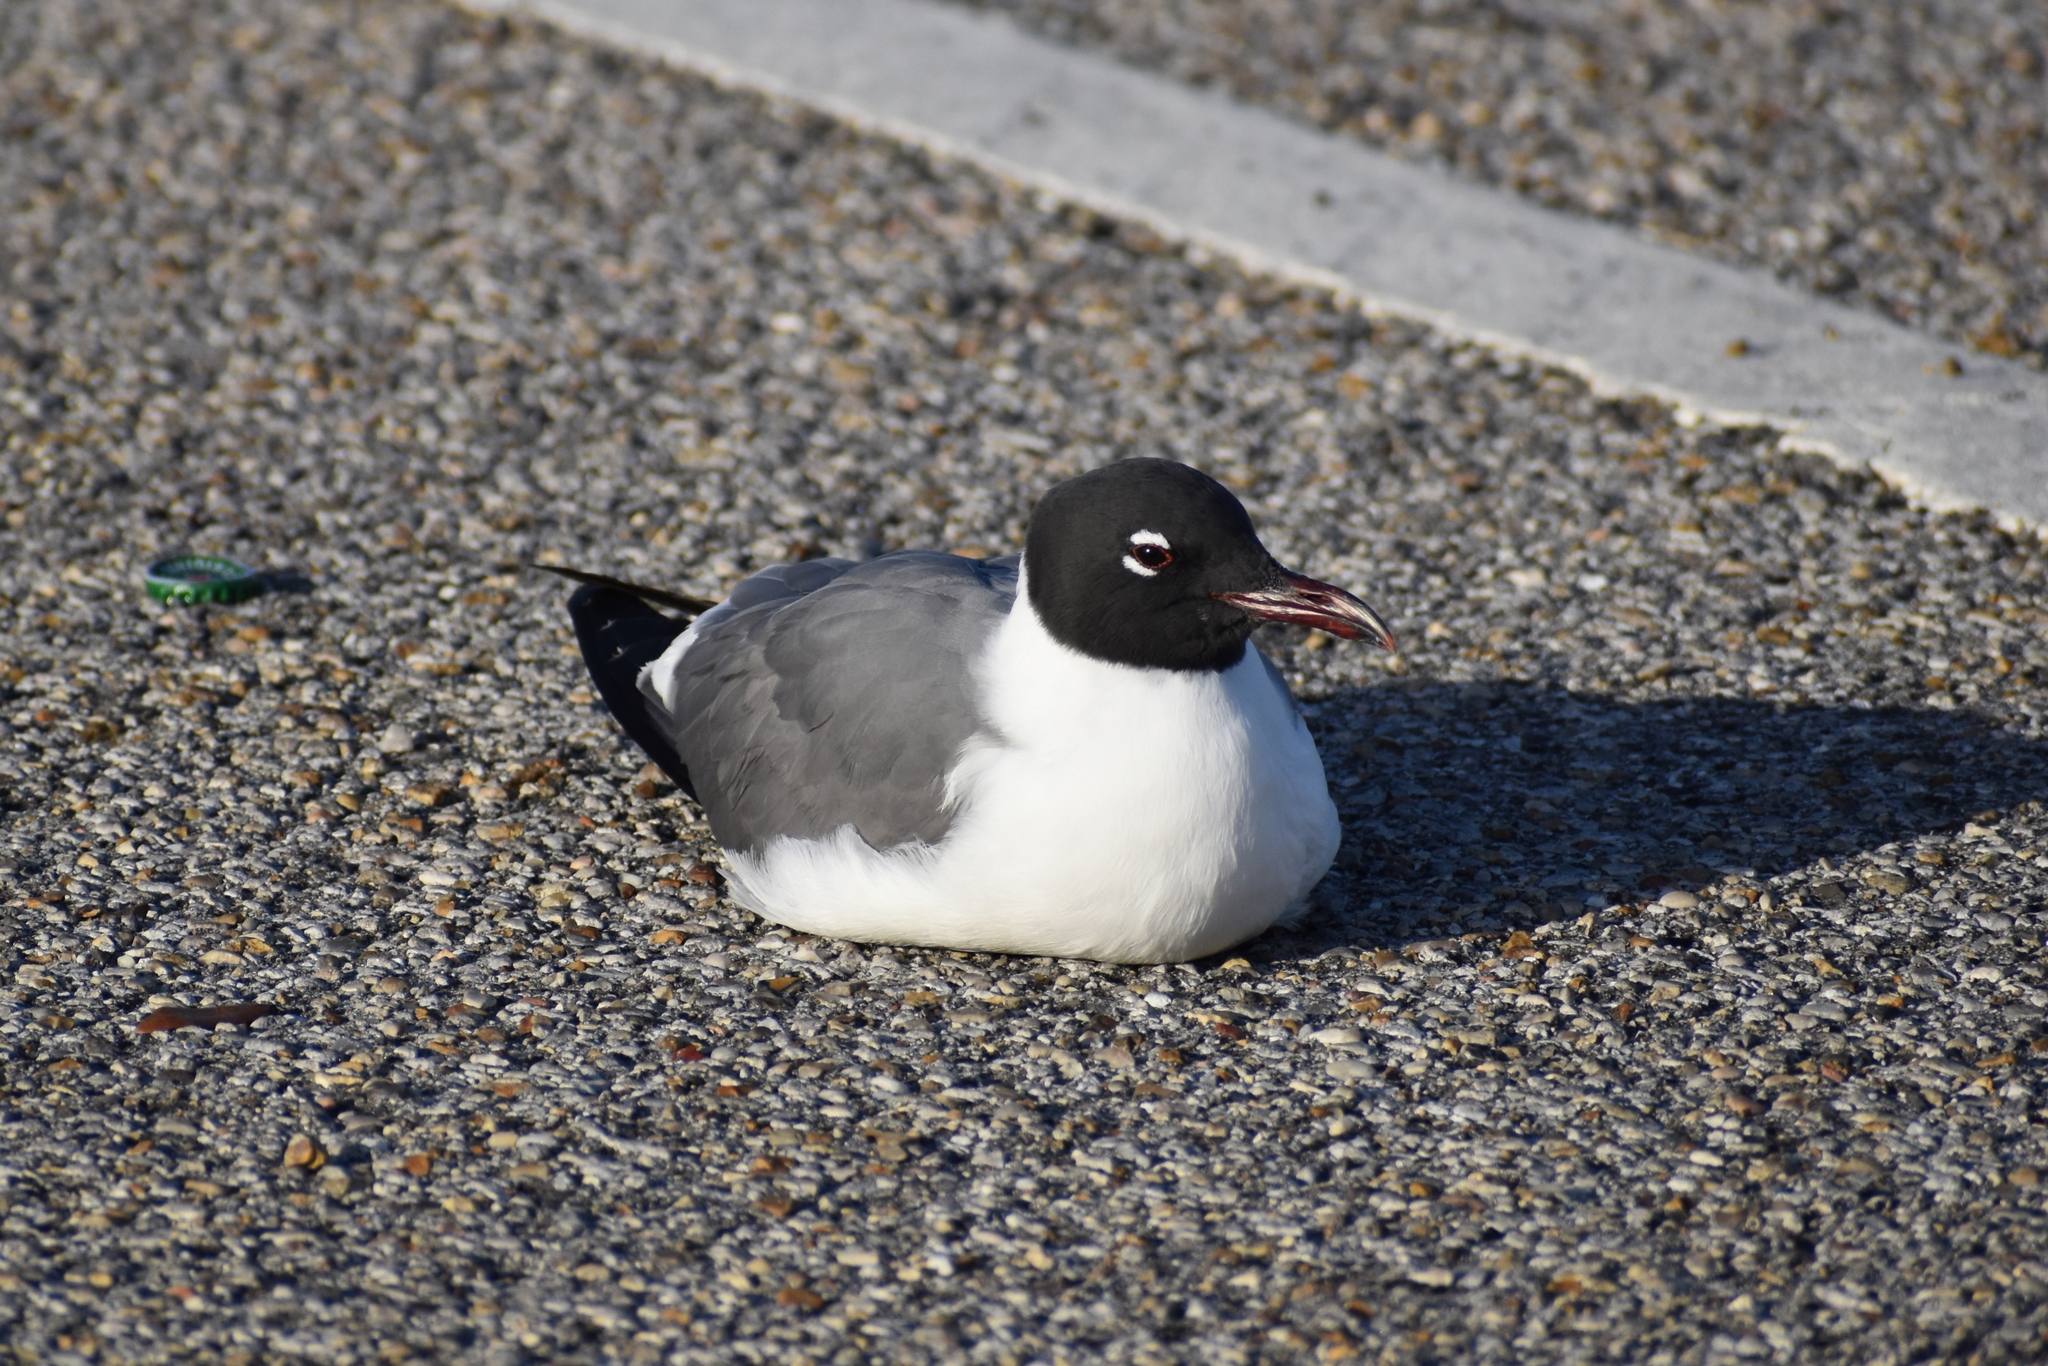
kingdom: Animalia
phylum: Chordata
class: Aves
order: Charadriiformes
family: Laridae
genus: Leucophaeus
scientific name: Leucophaeus atricilla
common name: Laughing gull
